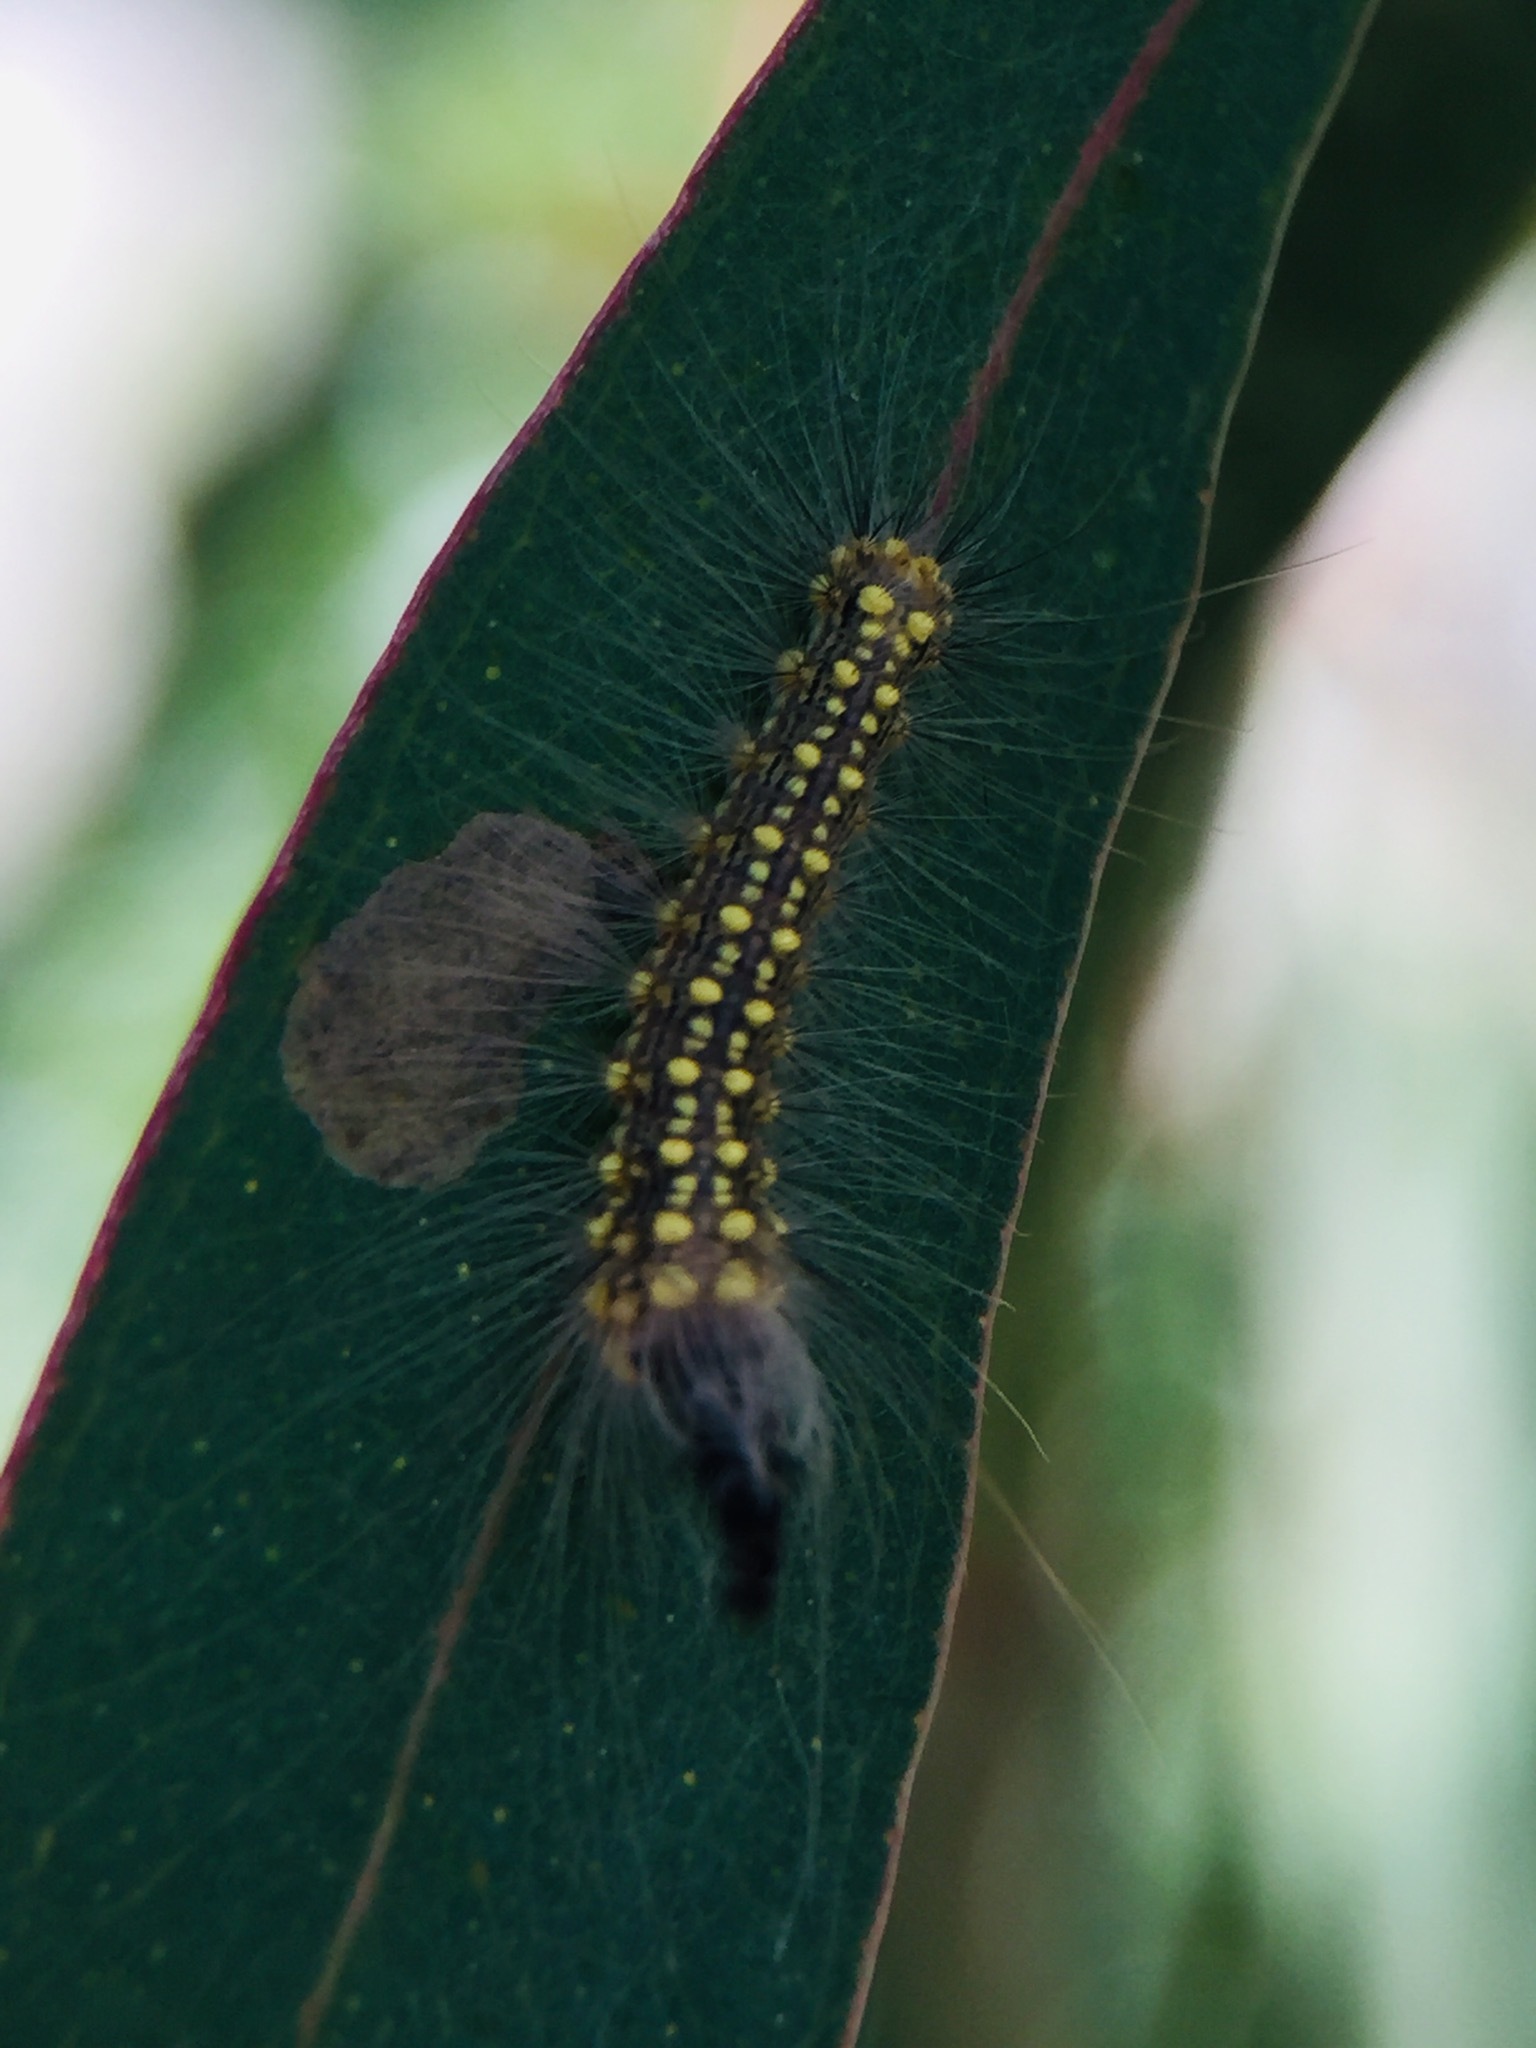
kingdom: Animalia
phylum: Arthropoda
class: Insecta
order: Lepidoptera
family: Nolidae
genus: Uraba
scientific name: Uraba lugens
